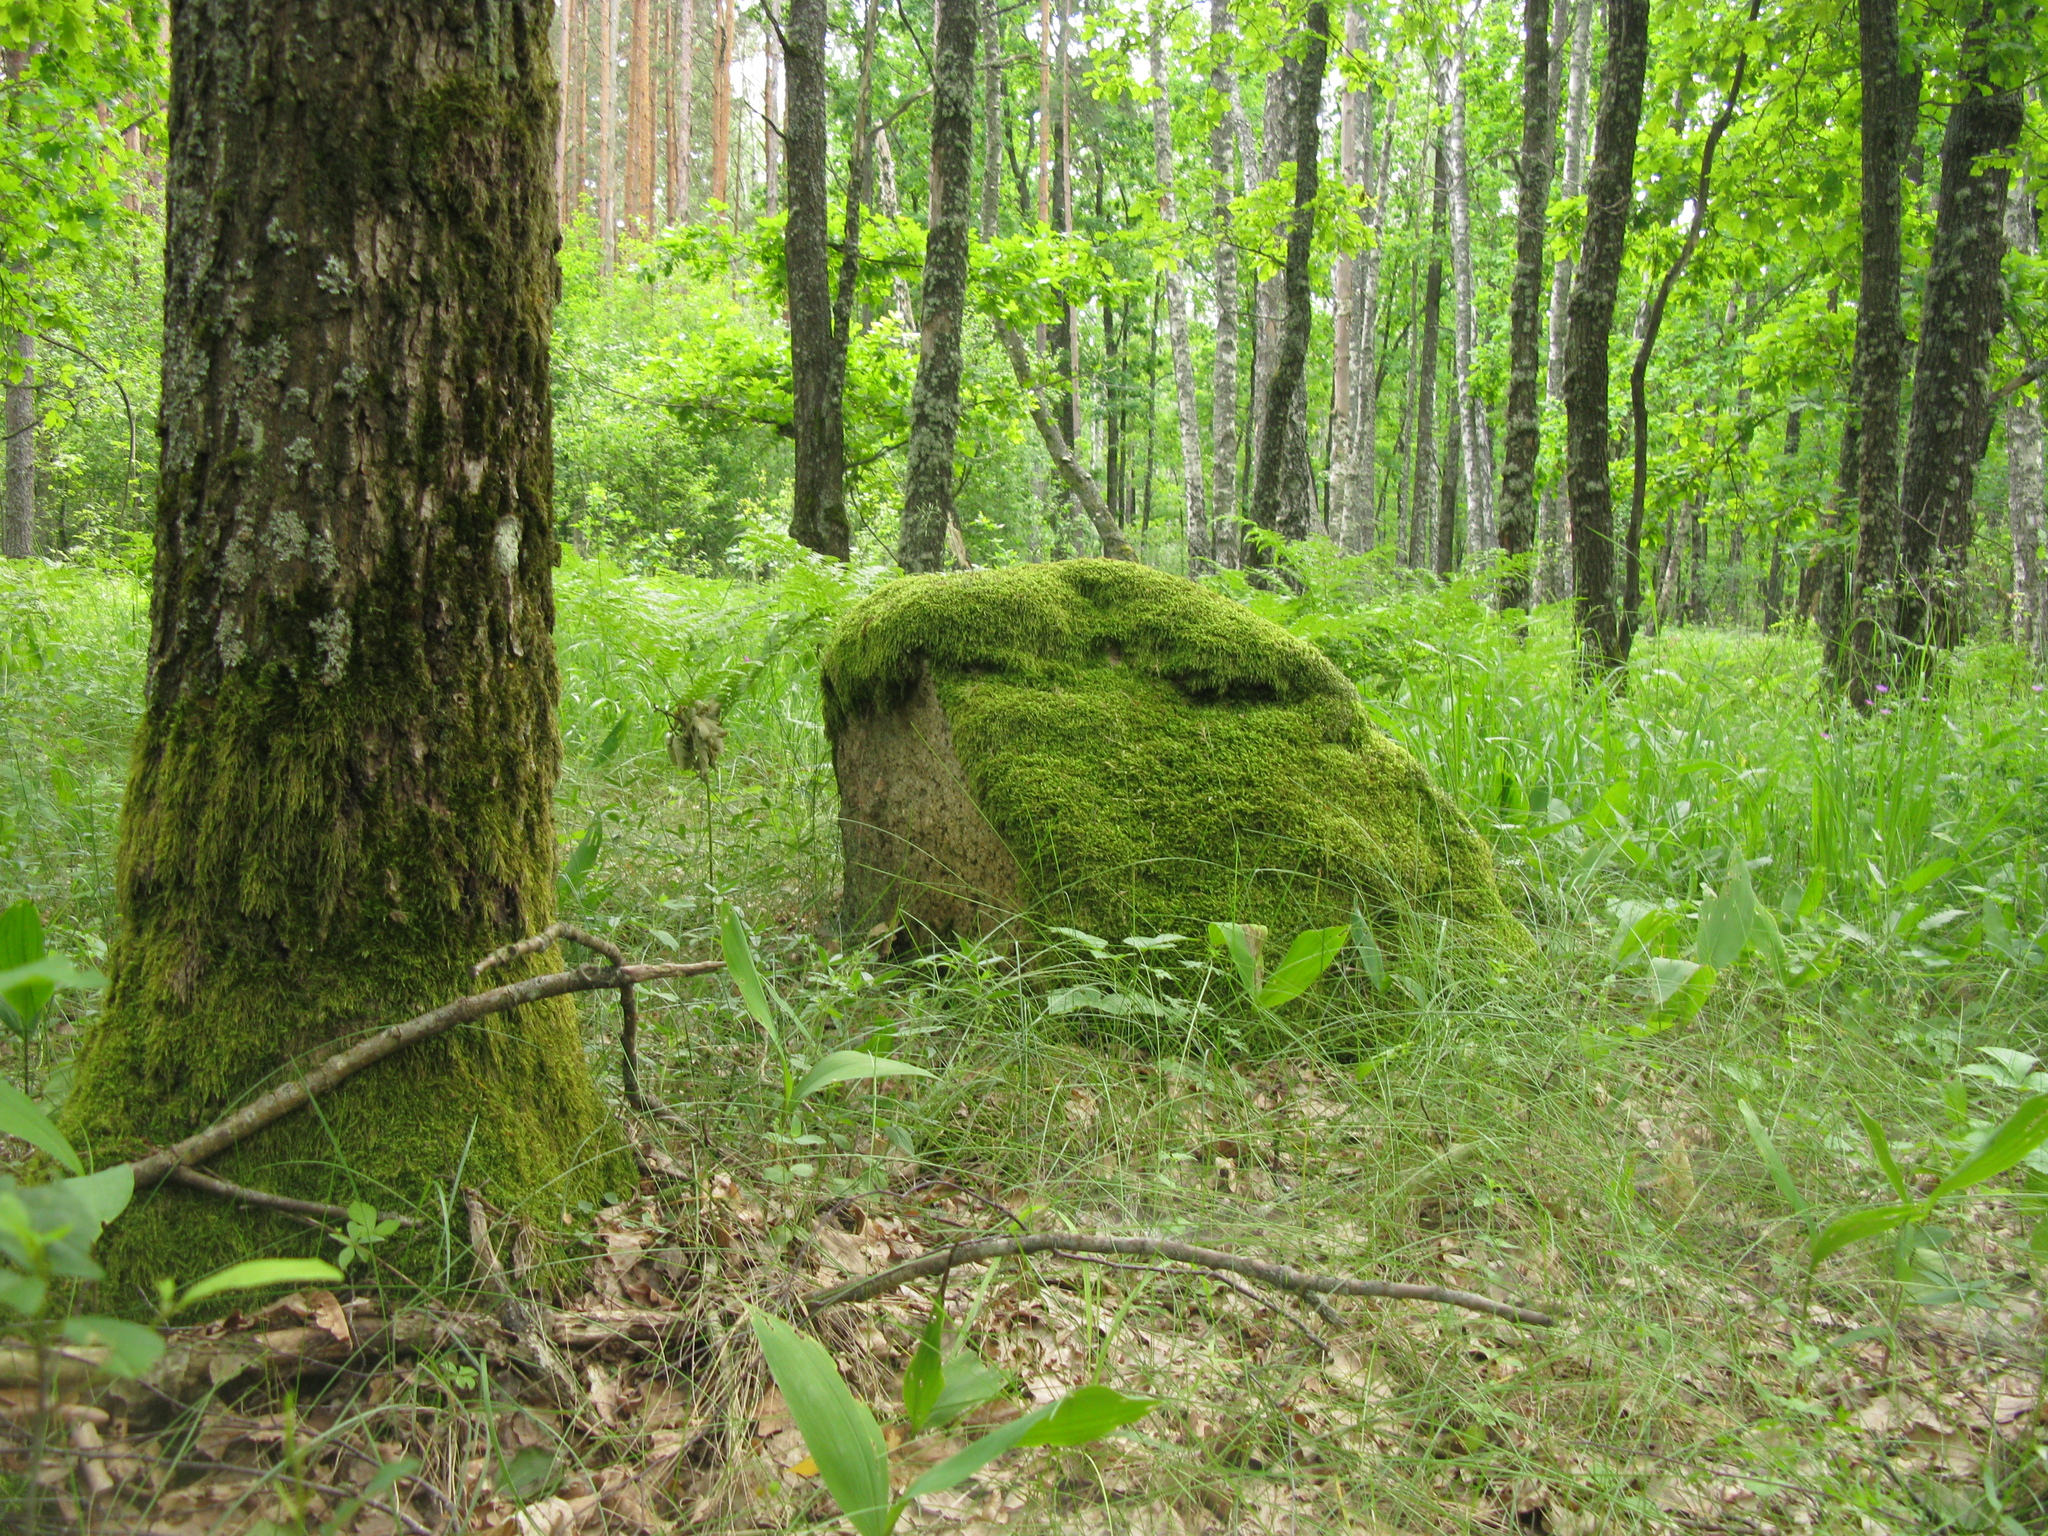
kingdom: Plantae
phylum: Tracheophyta
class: Magnoliopsida
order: Fagales
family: Fagaceae
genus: Quercus
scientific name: Quercus robur
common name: Pedunculate oak
